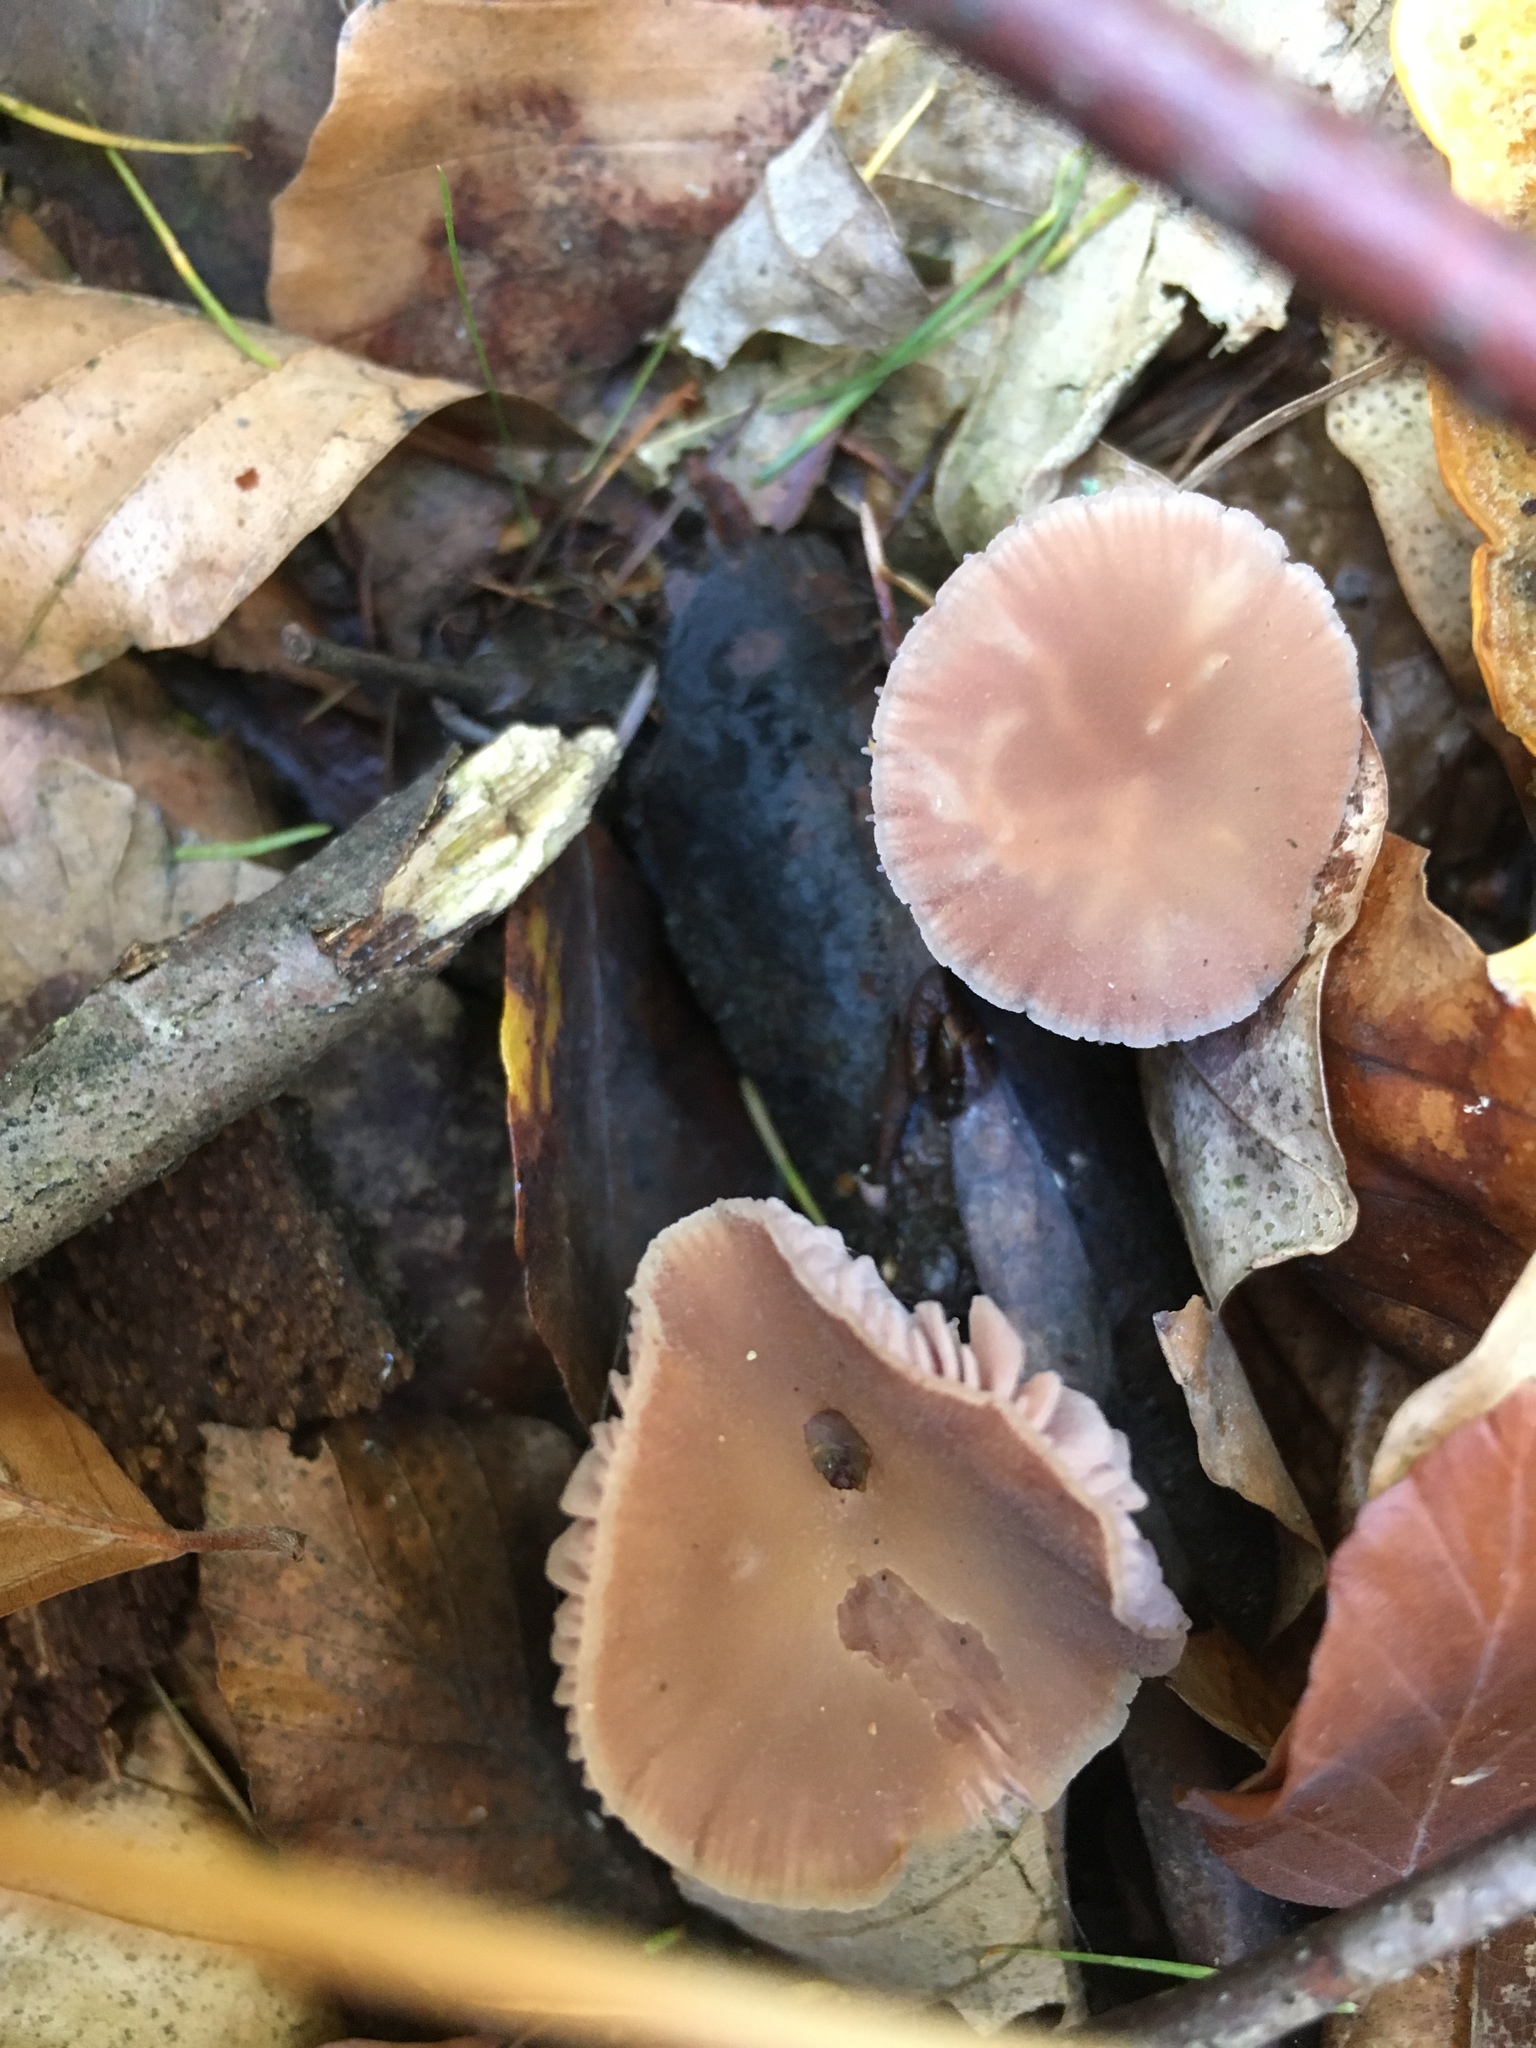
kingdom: Fungi
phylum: Basidiomycota
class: Agaricomycetes
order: Agaricales
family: Hydnangiaceae
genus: Laccaria
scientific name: Laccaria bicolor
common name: Bicoloured deceiver
